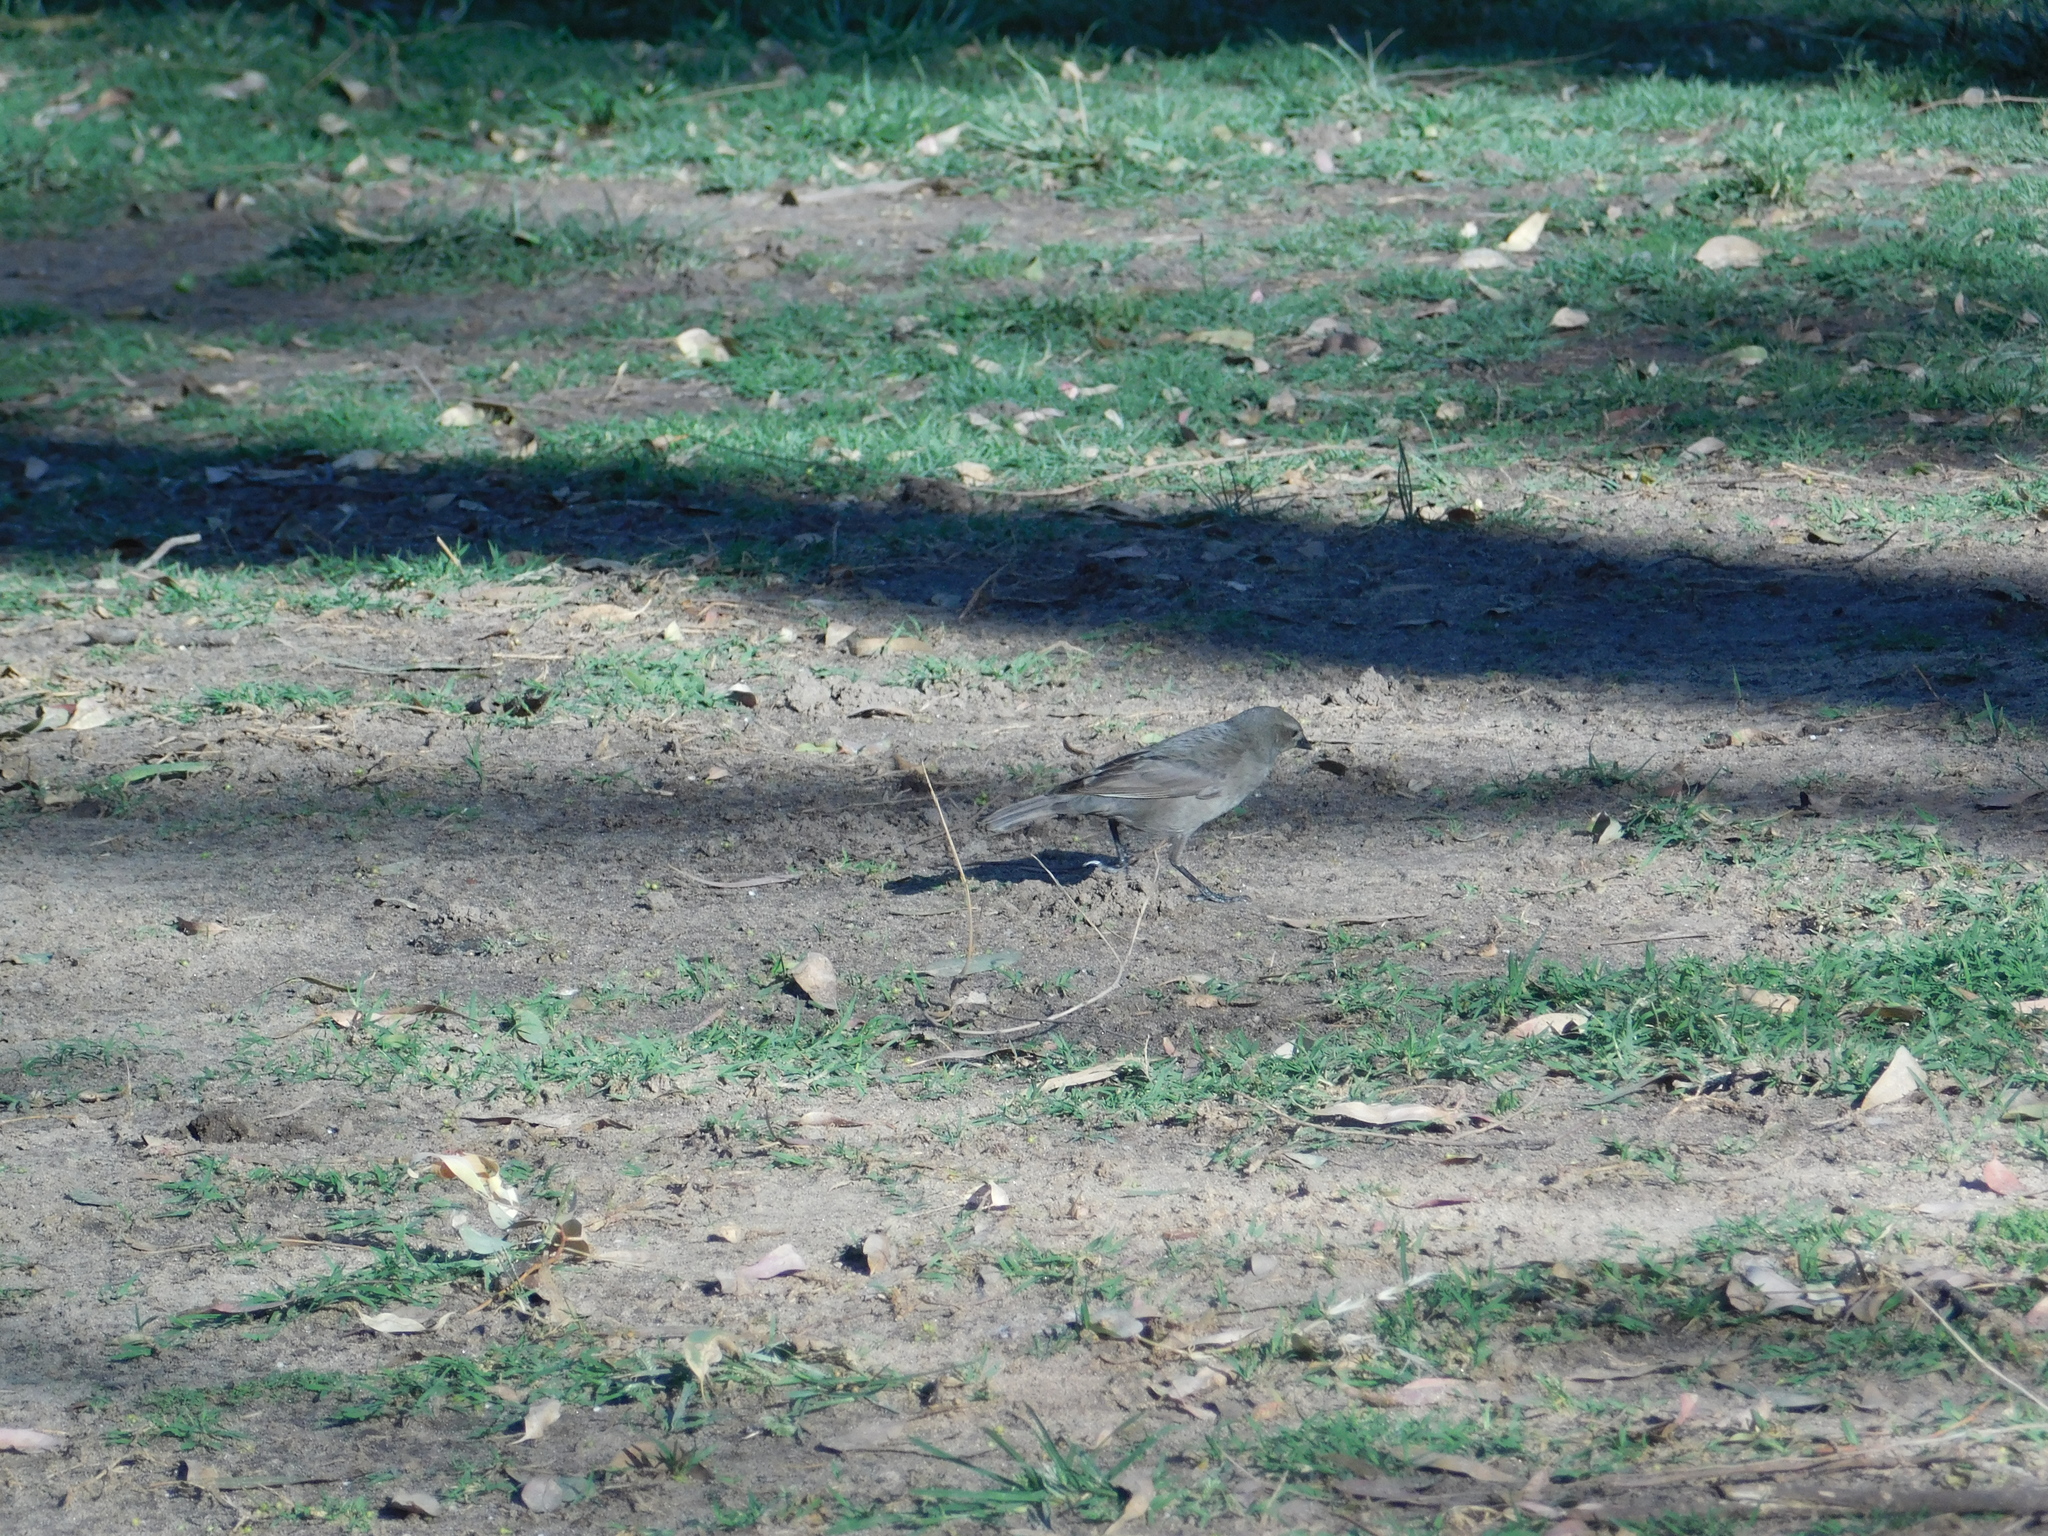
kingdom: Animalia
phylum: Chordata
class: Aves
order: Passeriformes
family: Icteridae
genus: Molothrus
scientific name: Molothrus bonariensis
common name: Shiny cowbird
